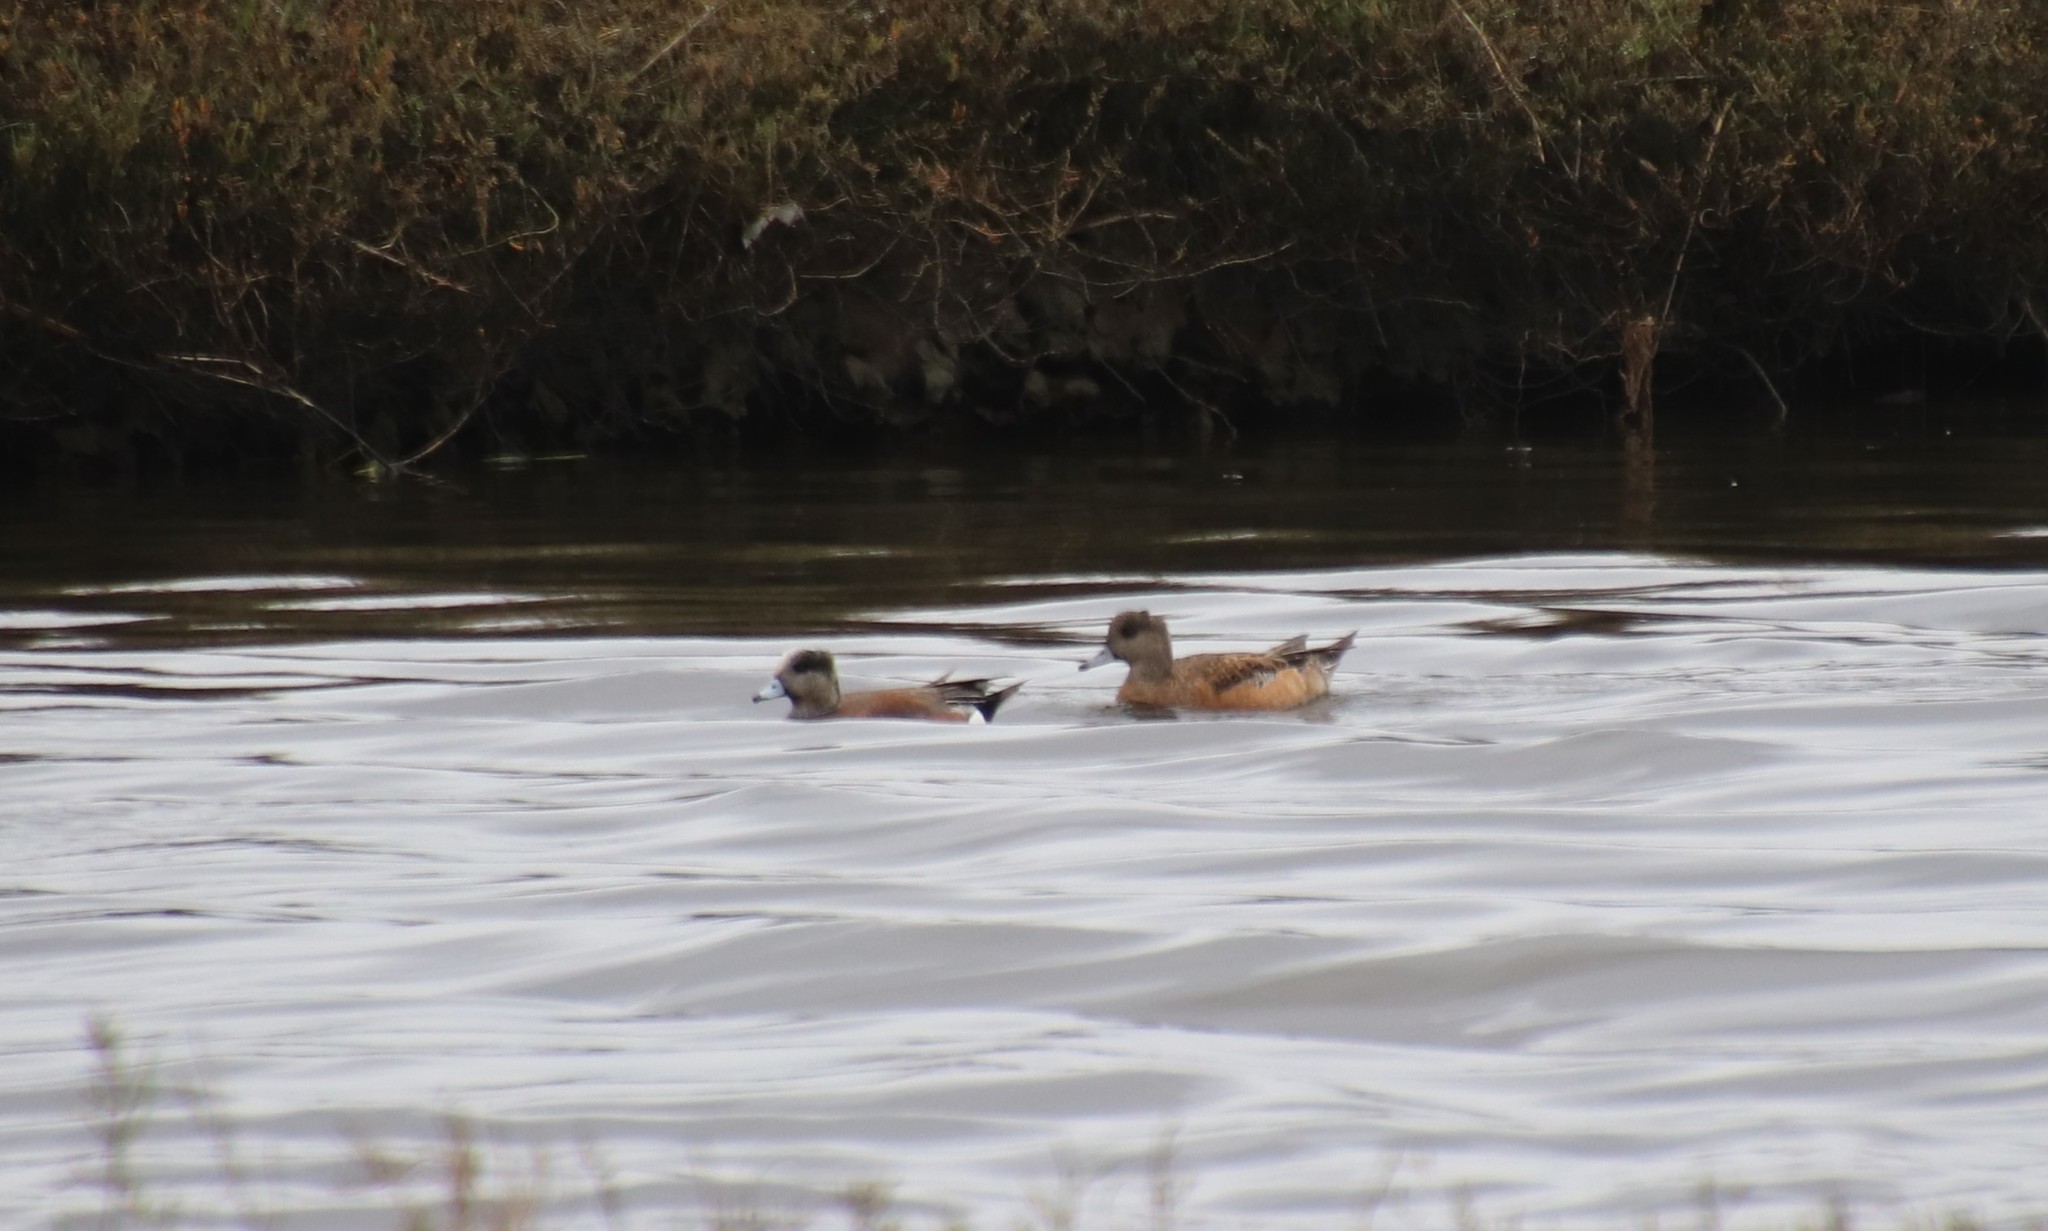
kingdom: Animalia
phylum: Chordata
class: Aves
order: Anseriformes
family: Anatidae
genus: Mareca
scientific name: Mareca americana
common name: American wigeon
